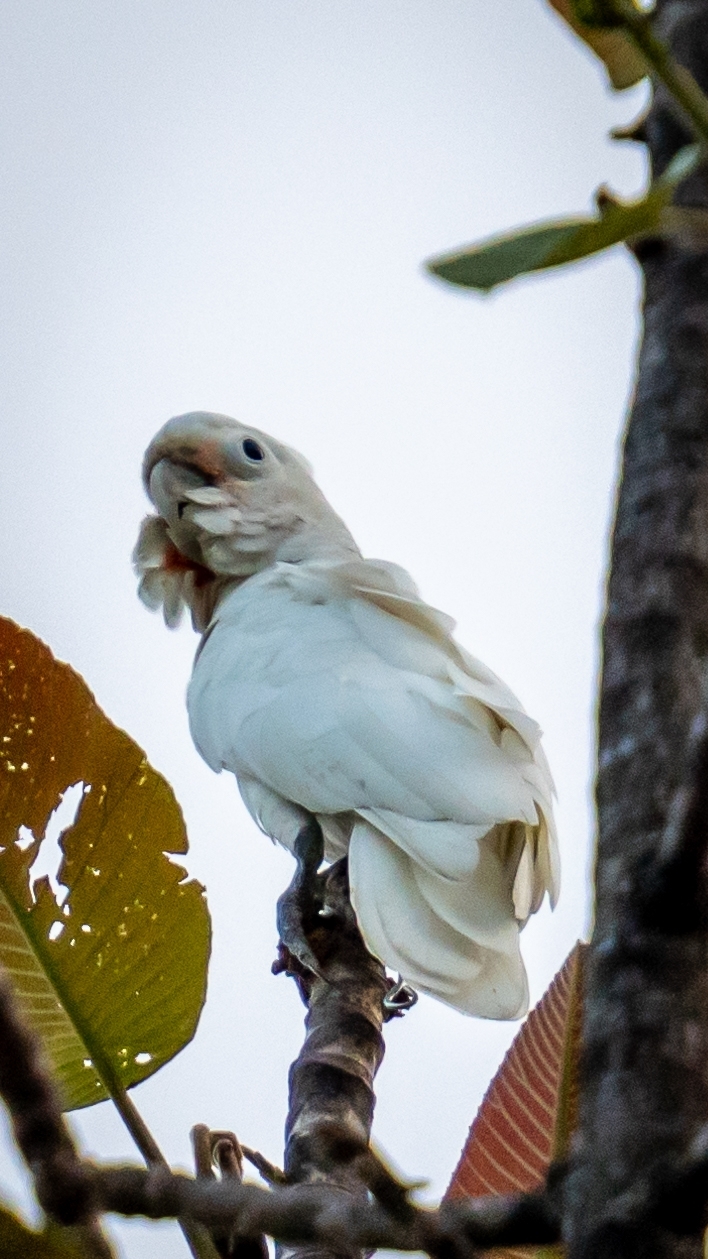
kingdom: Animalia
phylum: Chordata
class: Aves
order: Psittaciformes
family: Psittacidae
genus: Cacatua
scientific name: Cacatua goffiniana
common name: Tanimbar corella
